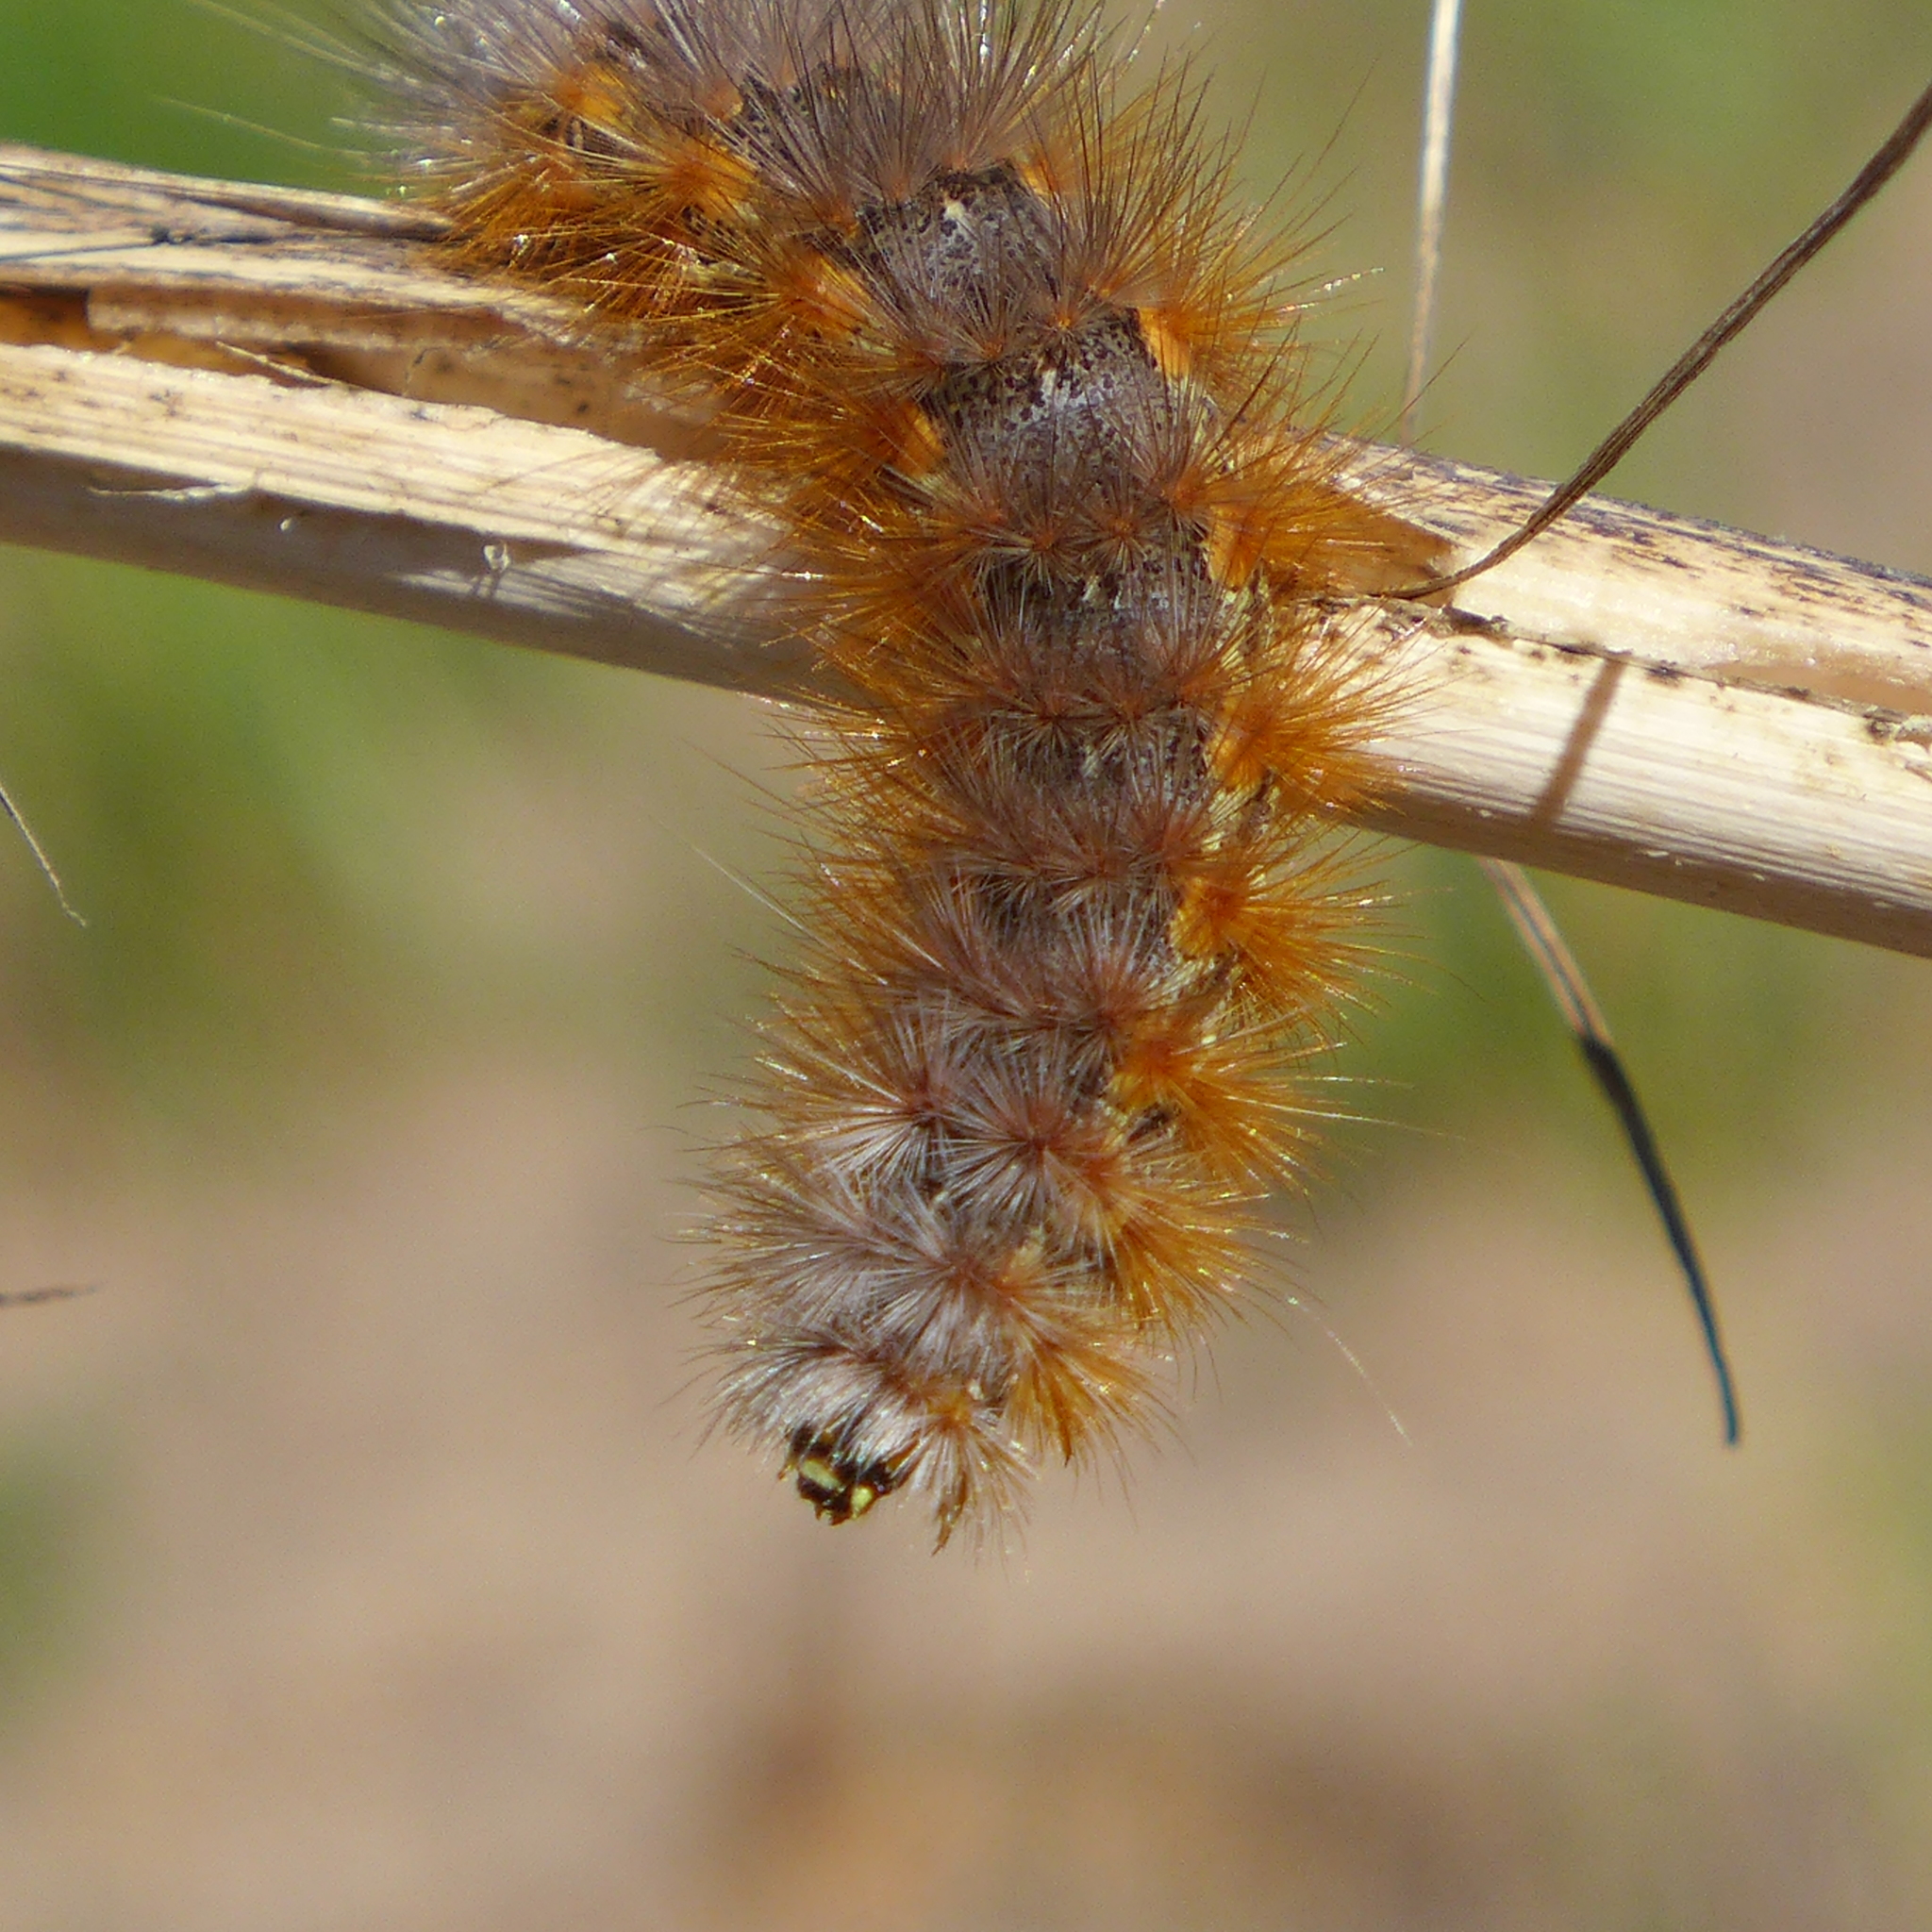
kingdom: Animalia
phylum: Arthropoda
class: Insecta
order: Lepidoptera
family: Erebidae
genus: Estigmene
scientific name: Estigmene acrea
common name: Salt marsh moth
